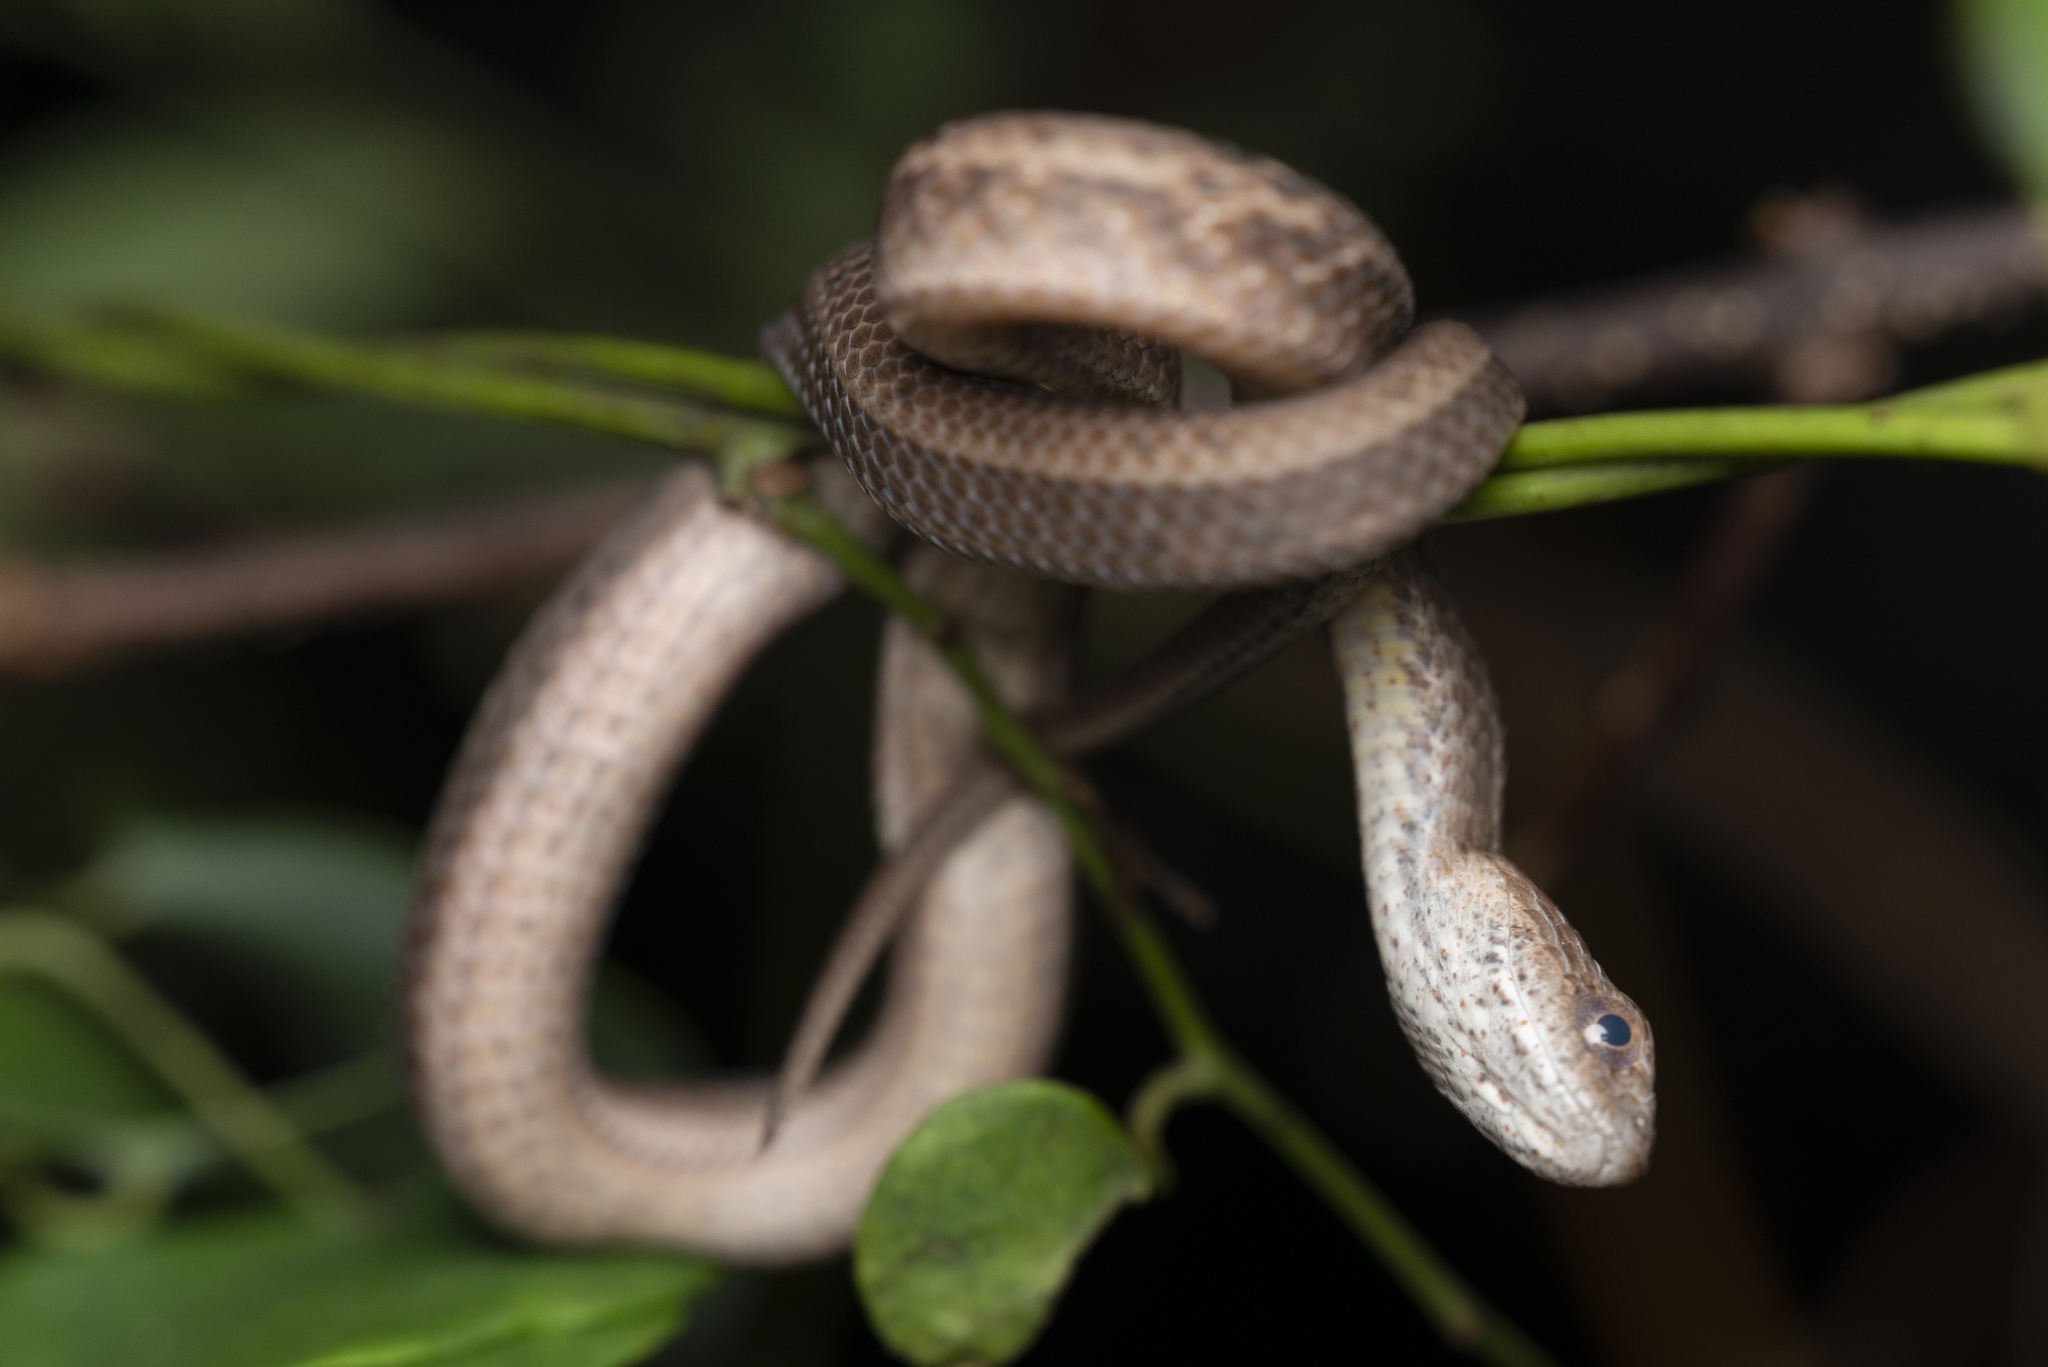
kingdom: Animalia
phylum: Chordata
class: Squamata
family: Pseudaspididae
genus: Psammodynastes
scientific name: Psammodynastes pulverulentus
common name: Common mock viper
